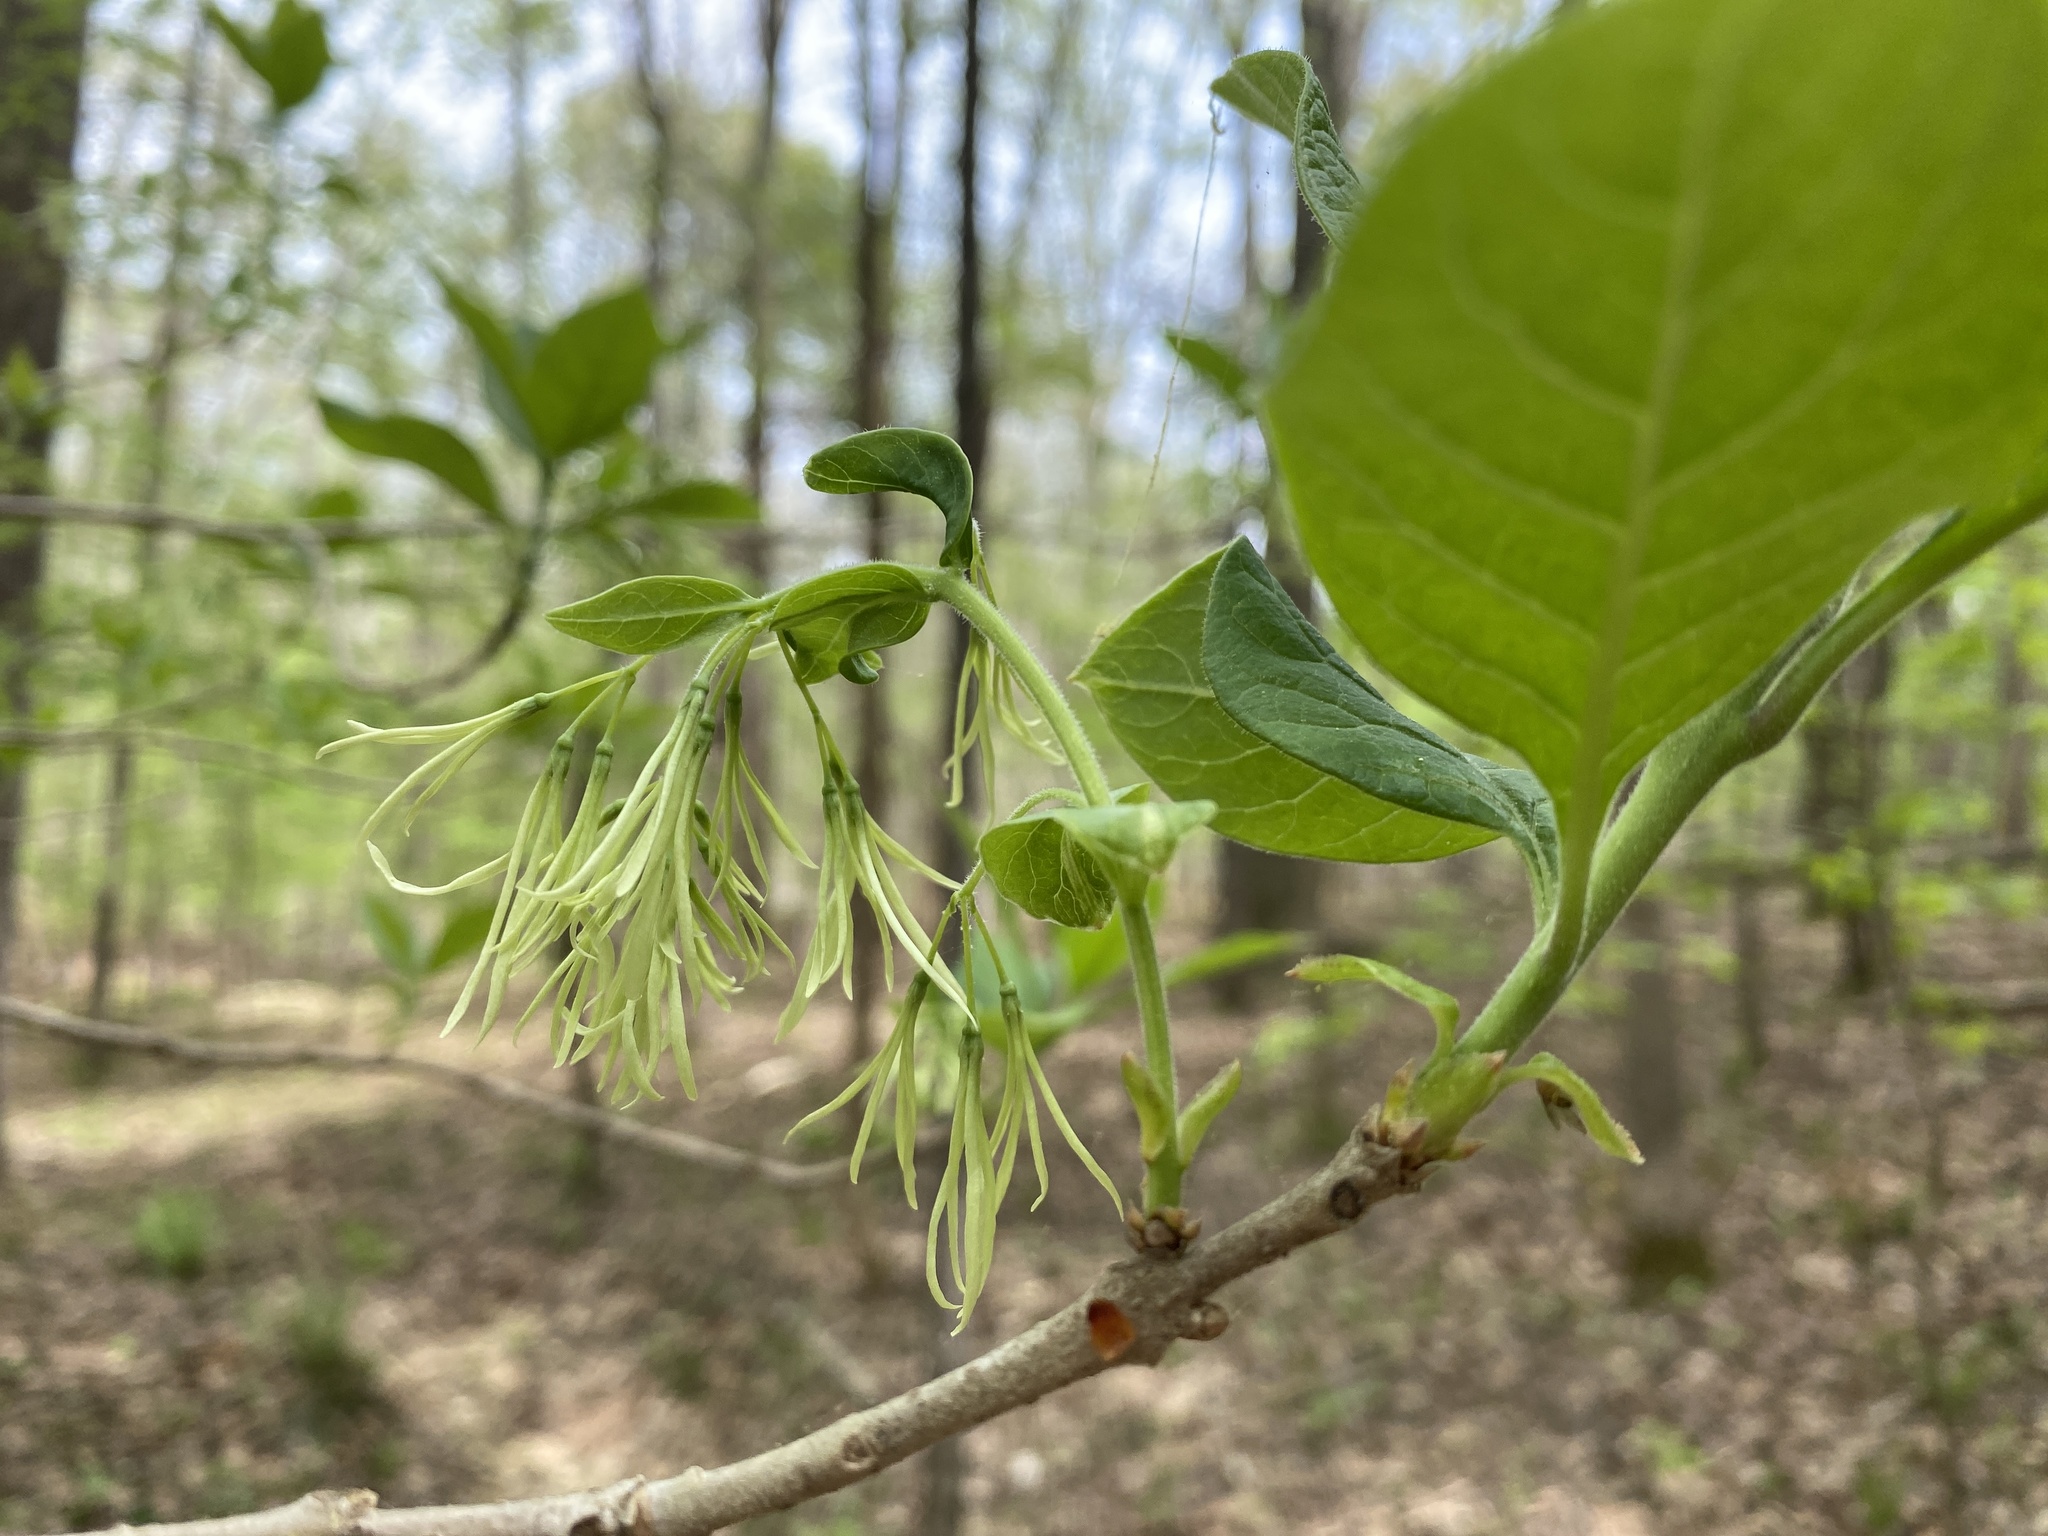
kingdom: Plantae
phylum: Tracheophyta
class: Magnoliopsida
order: Lamiales
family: Oleaceae
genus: Chionanthus
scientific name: Chionanthus virginicus
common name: American fringetree
